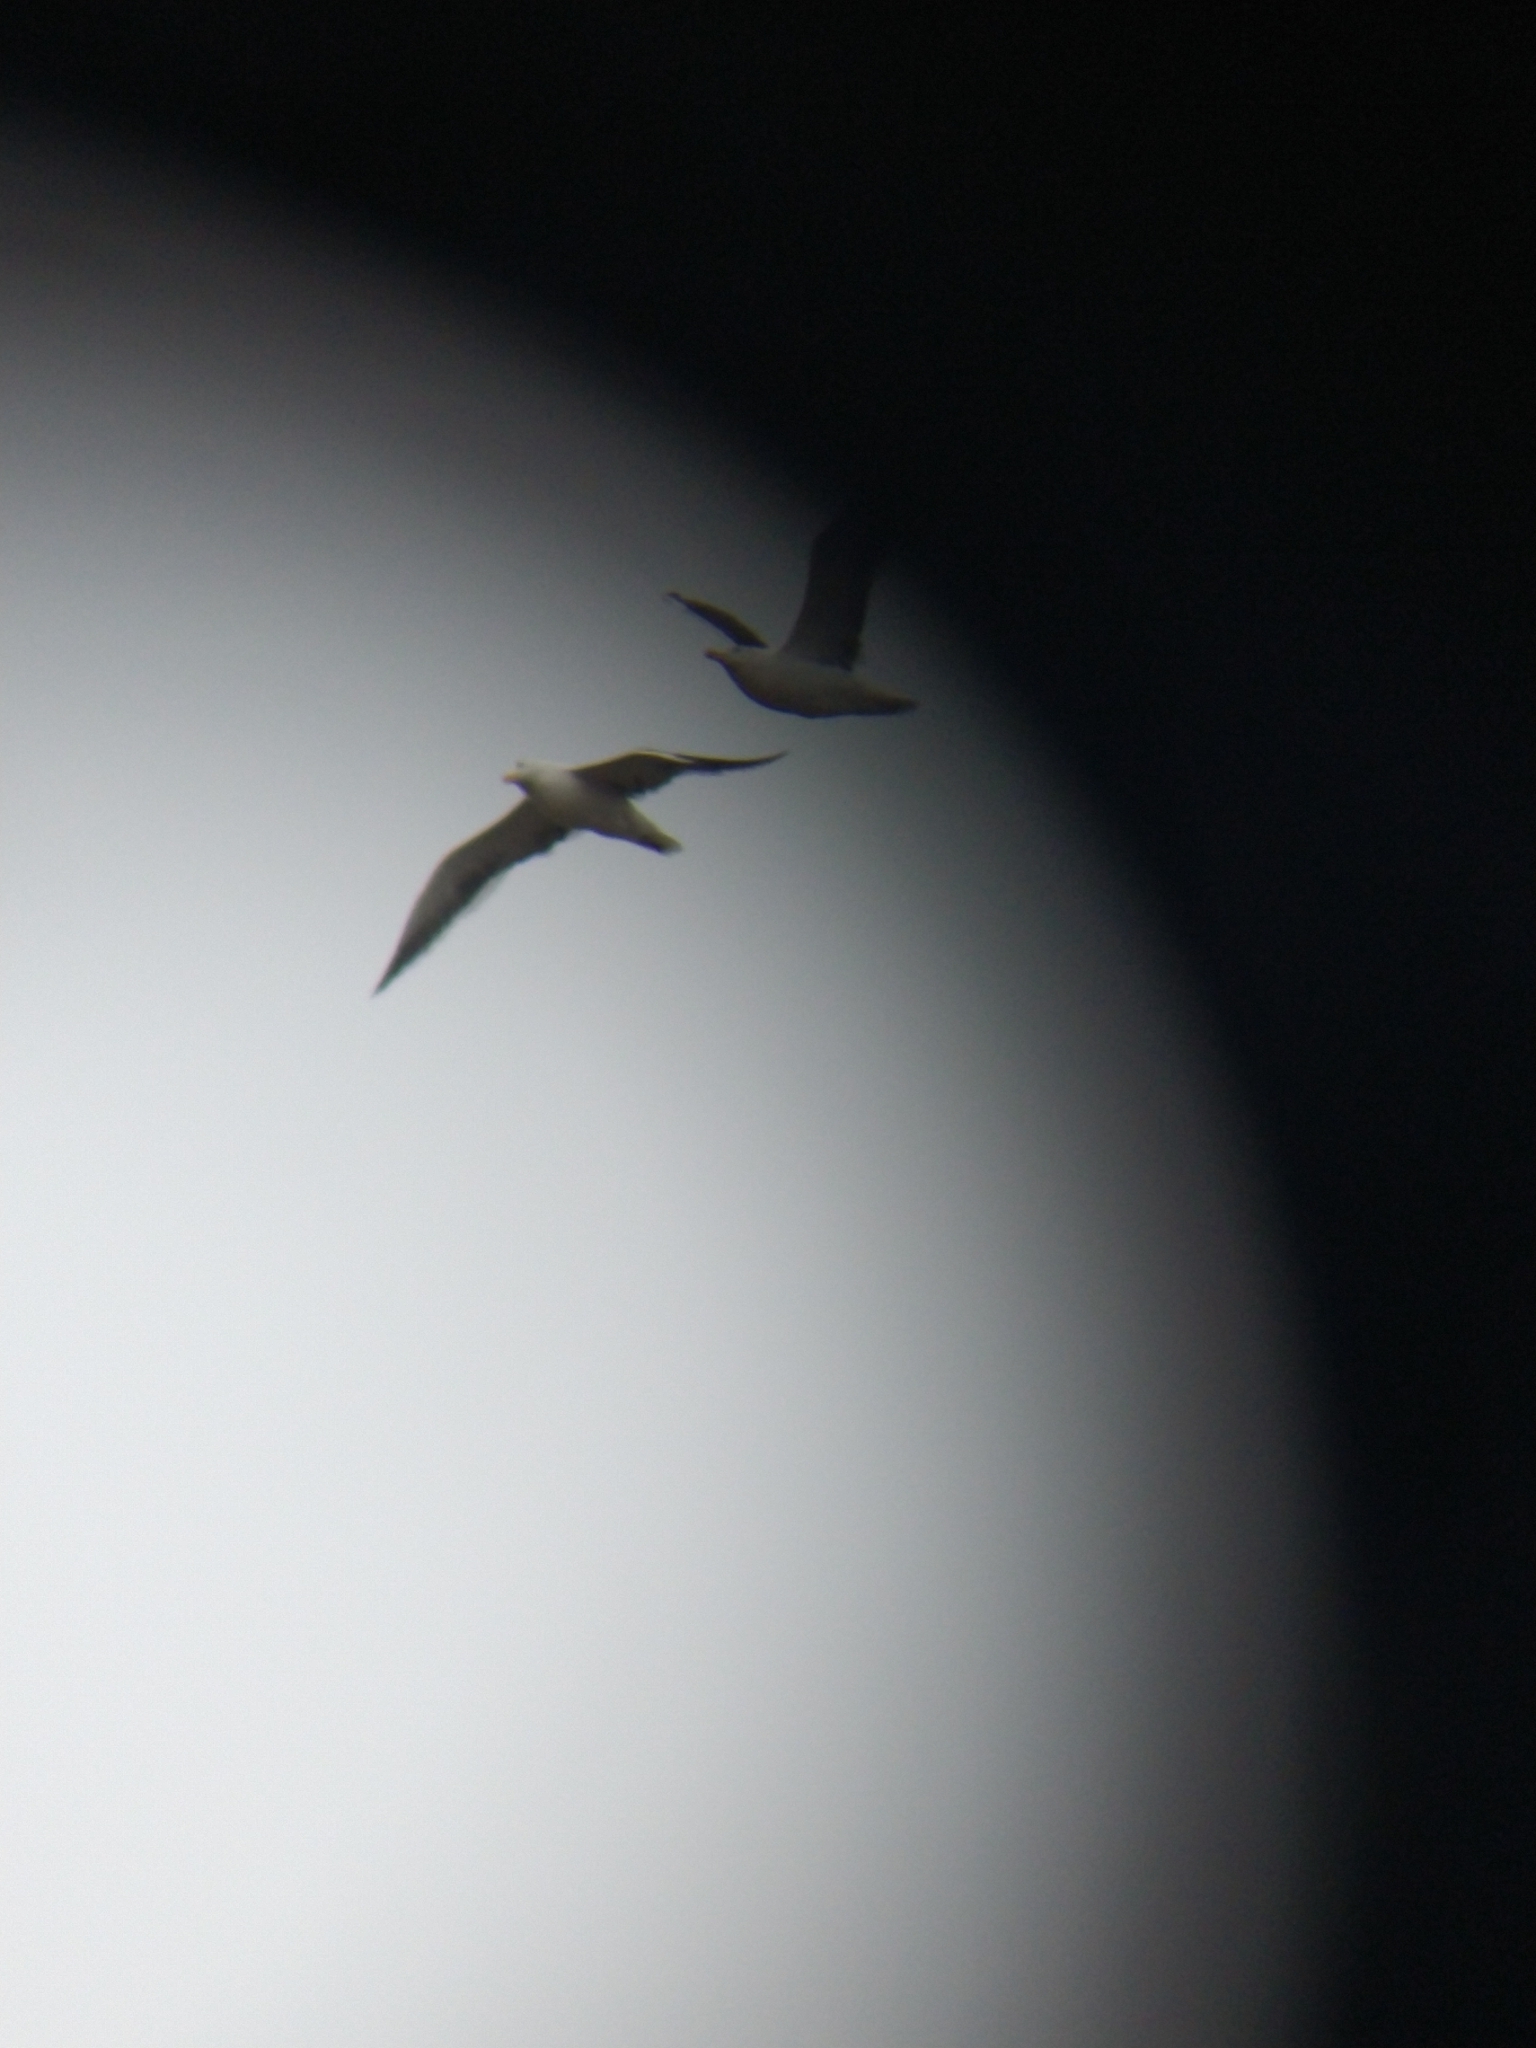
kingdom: Animalia
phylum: Chordata
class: Aves
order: Charadriiformes
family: Laridae
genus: Larus
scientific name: Larus dominicanus
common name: Kelp gull
